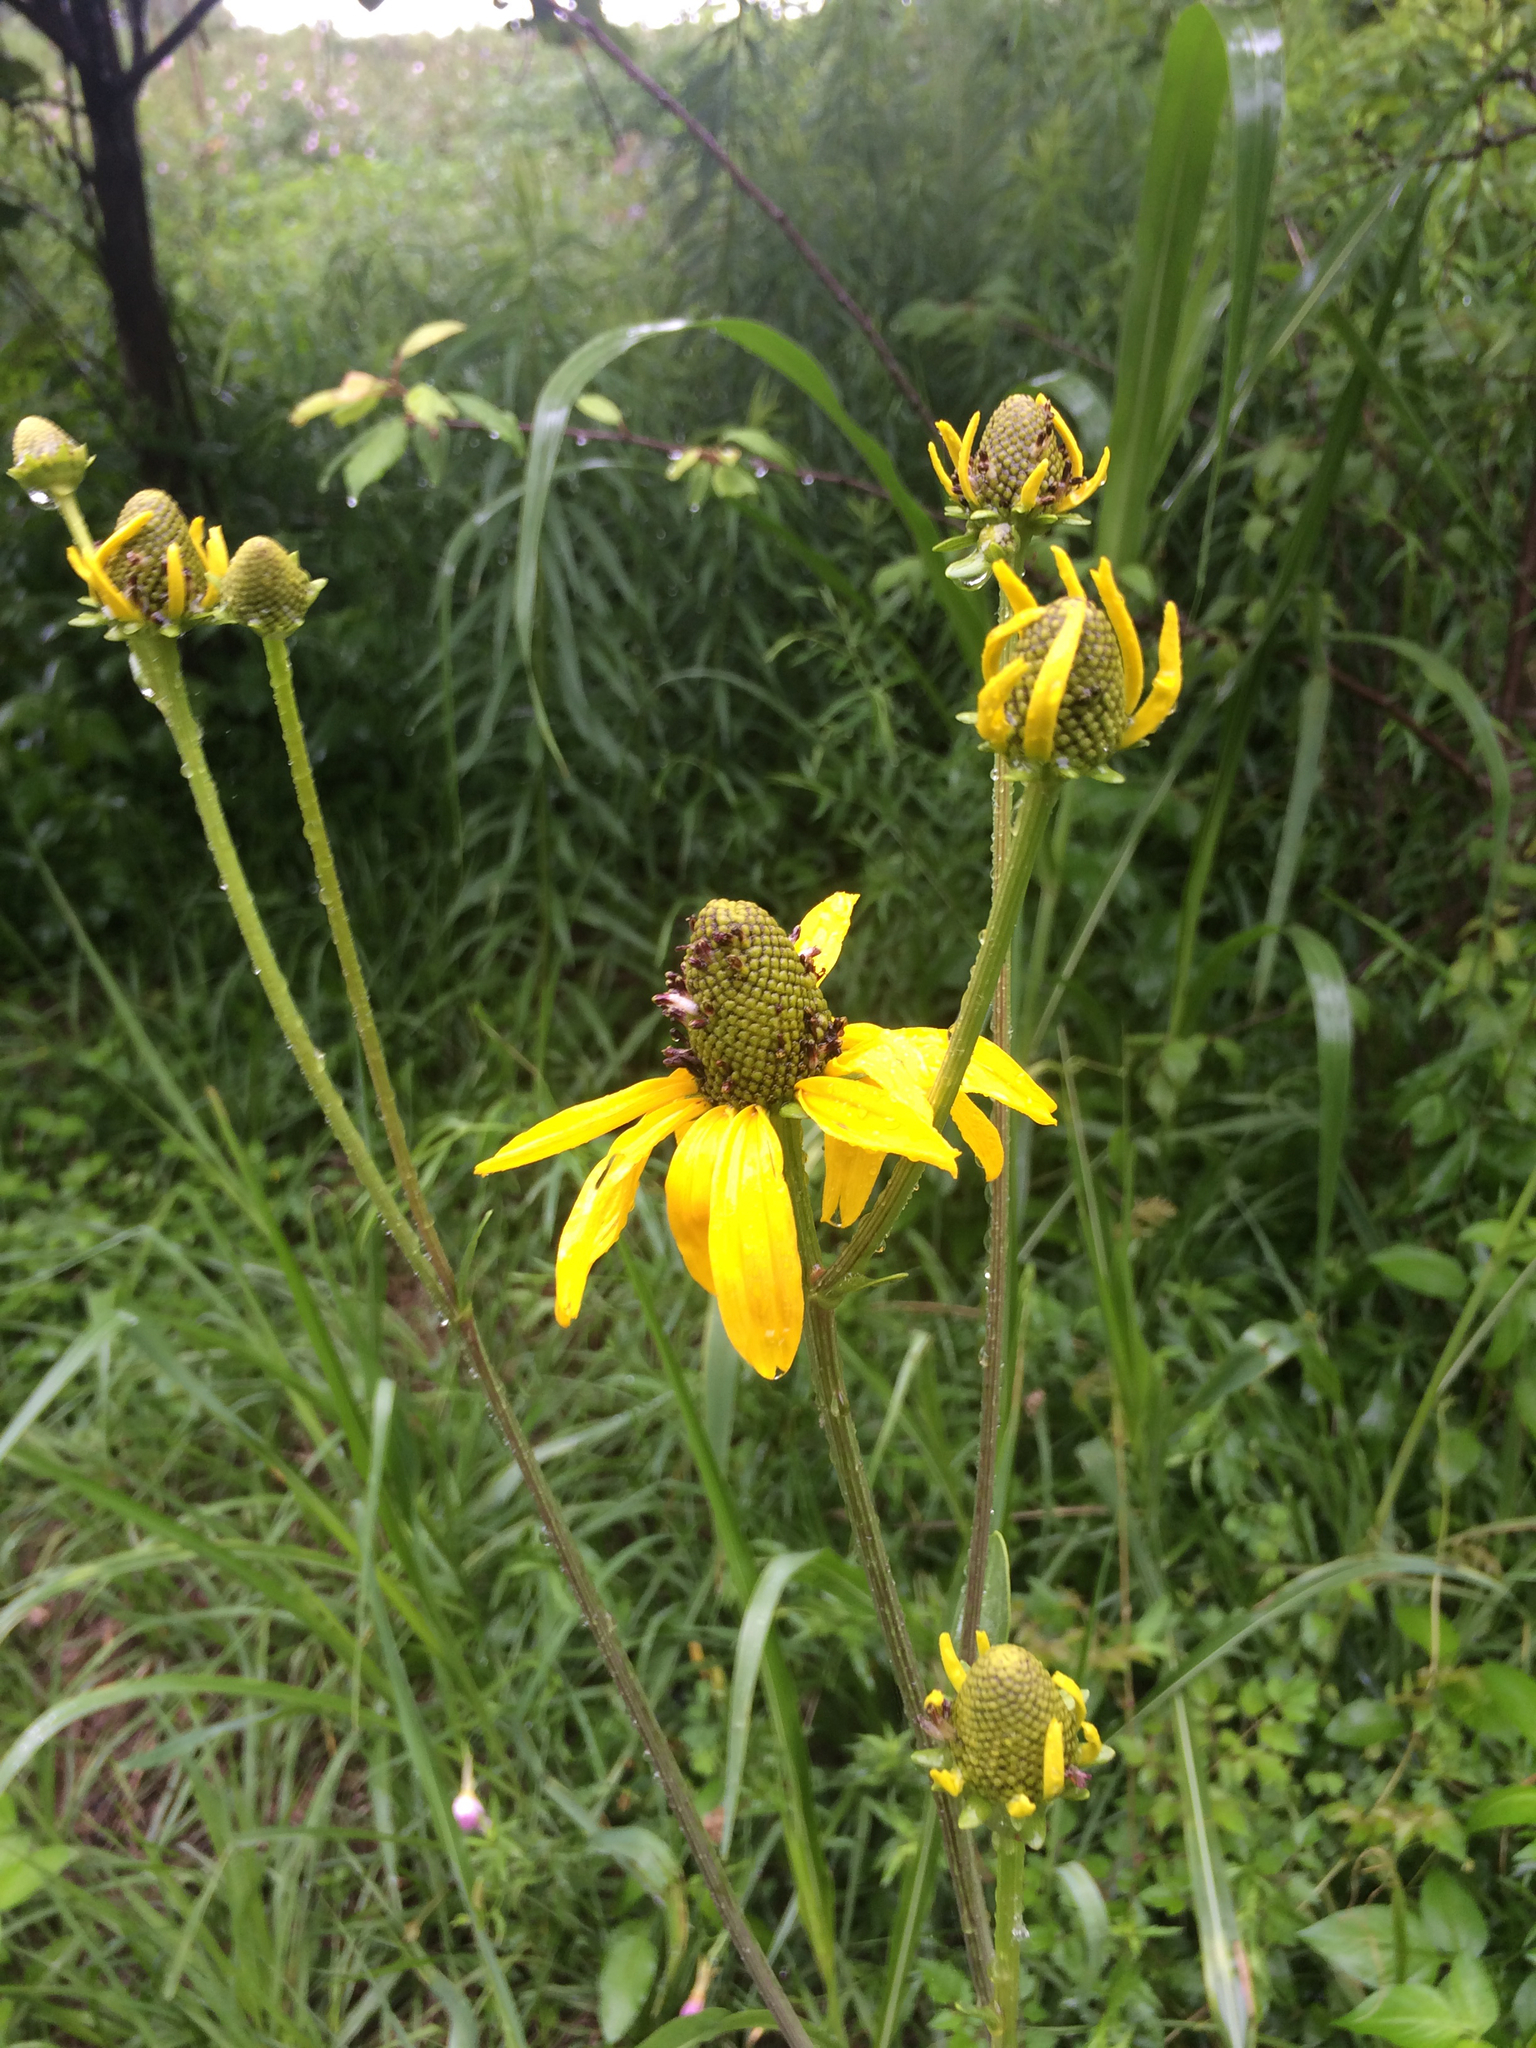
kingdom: Plantae
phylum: Tracheophyta
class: Magnoliopsida
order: Asterales
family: Asteraceae
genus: Rudbeckia
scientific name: Rudbeckia texana
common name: Texas coneflower
